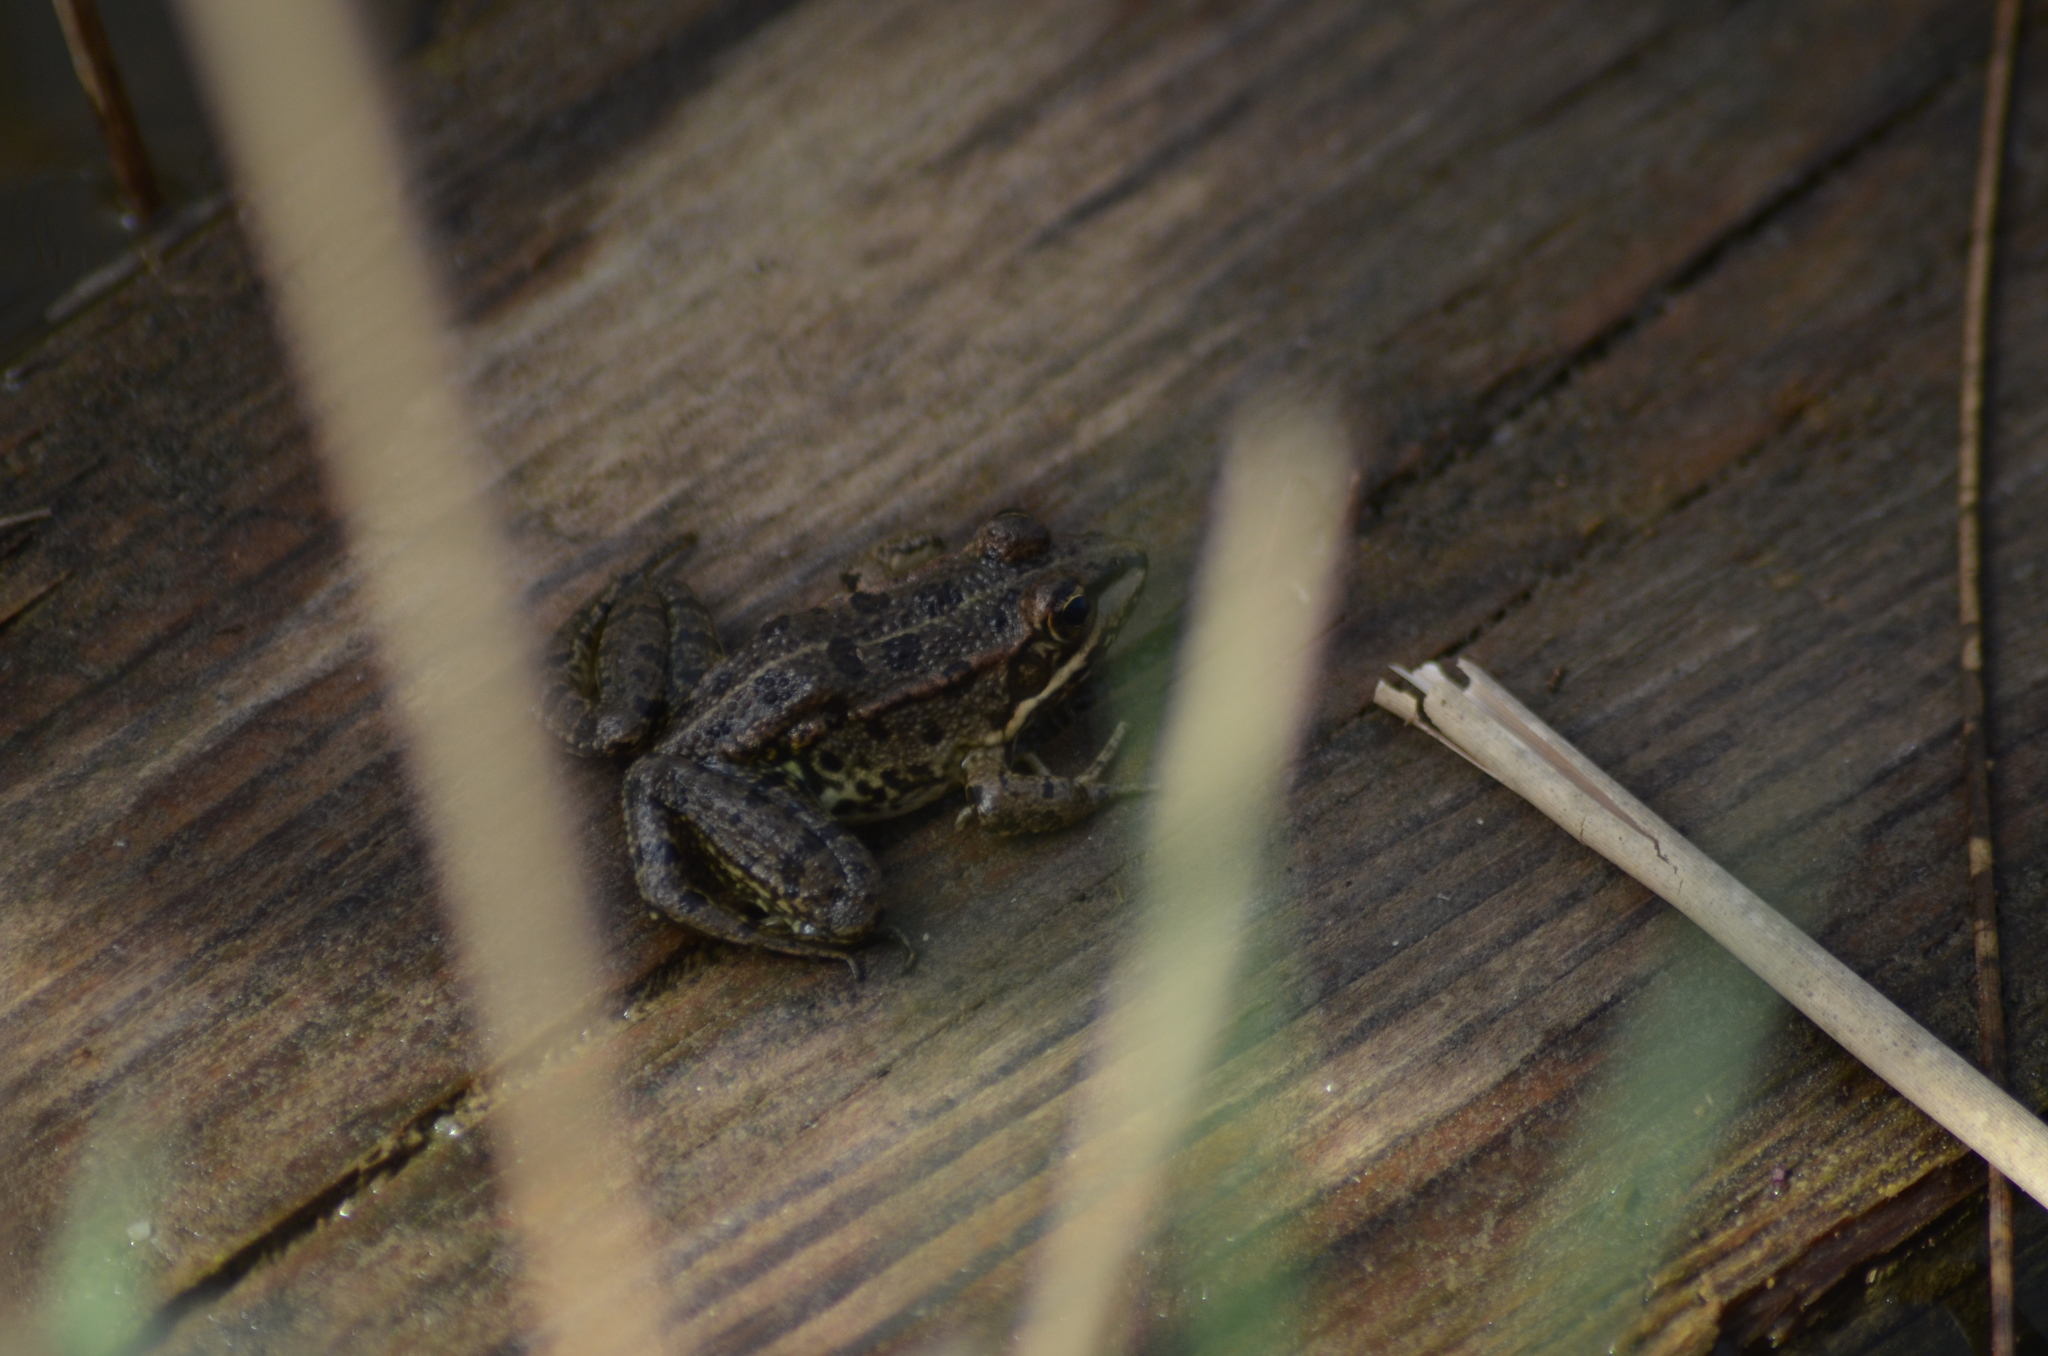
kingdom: Animalia
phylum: Chordata
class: Amphibia
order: Anura
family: Ranidae
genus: Pelophylax
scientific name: Pelophylax perezi
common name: Perez's frog
